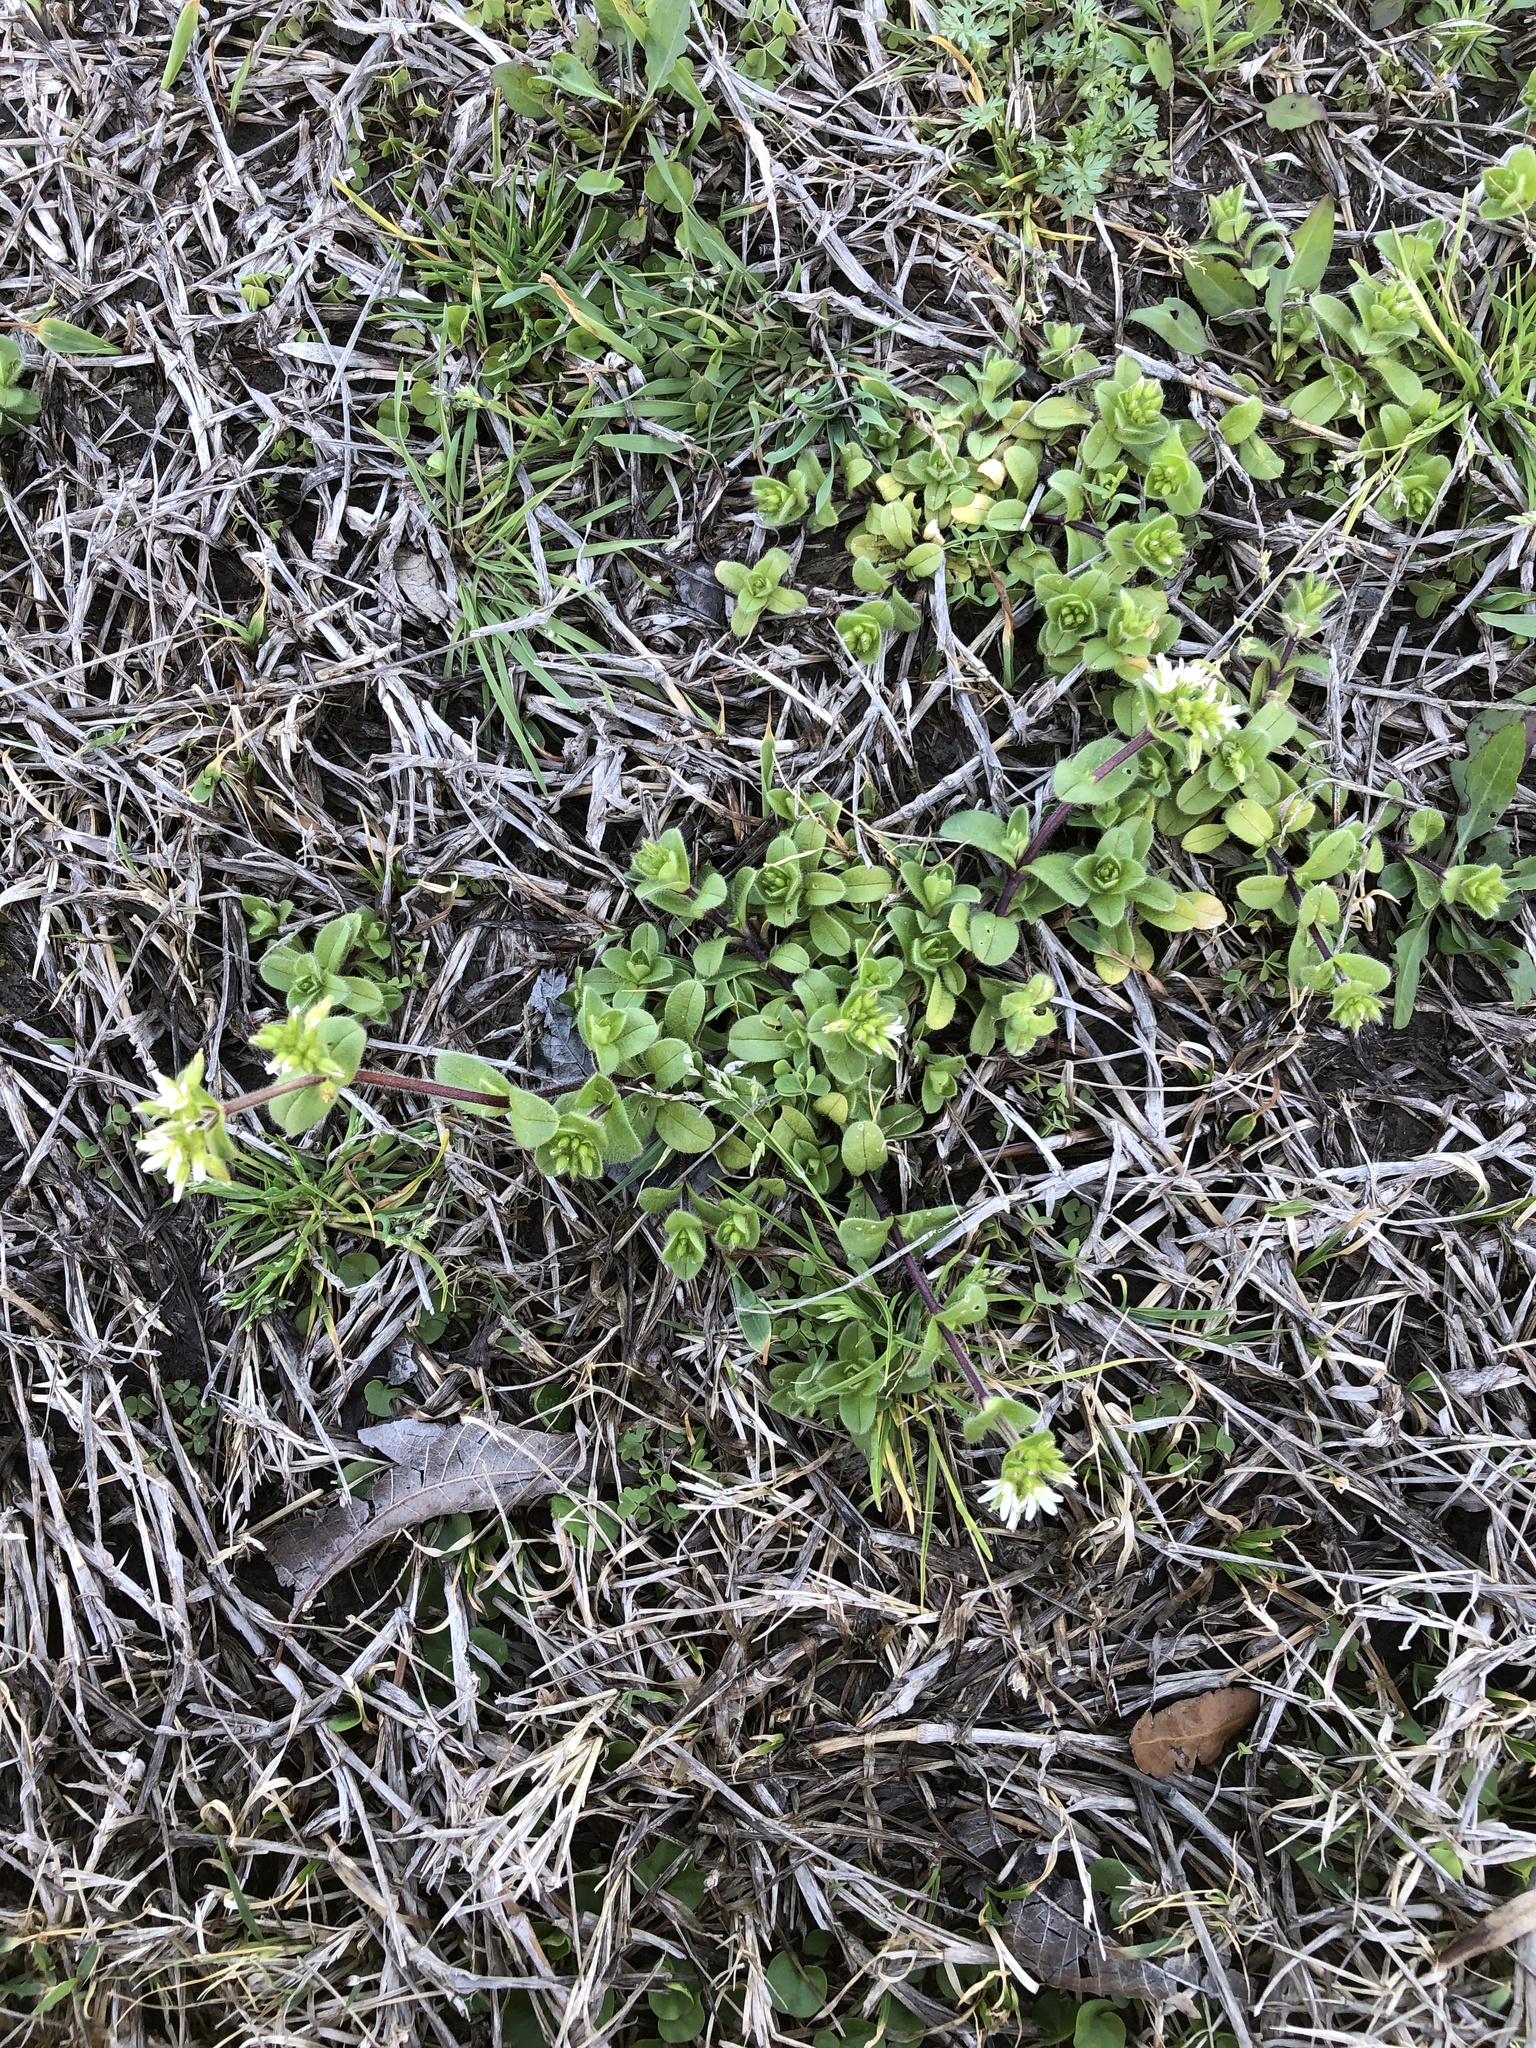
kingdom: Plantae
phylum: Tracheophyta
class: Magnoliopsida
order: Caryophyllales
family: Caryophyllaceae
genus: Cerastium
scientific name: Cerastium glomeratum
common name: Sticky chickweed
